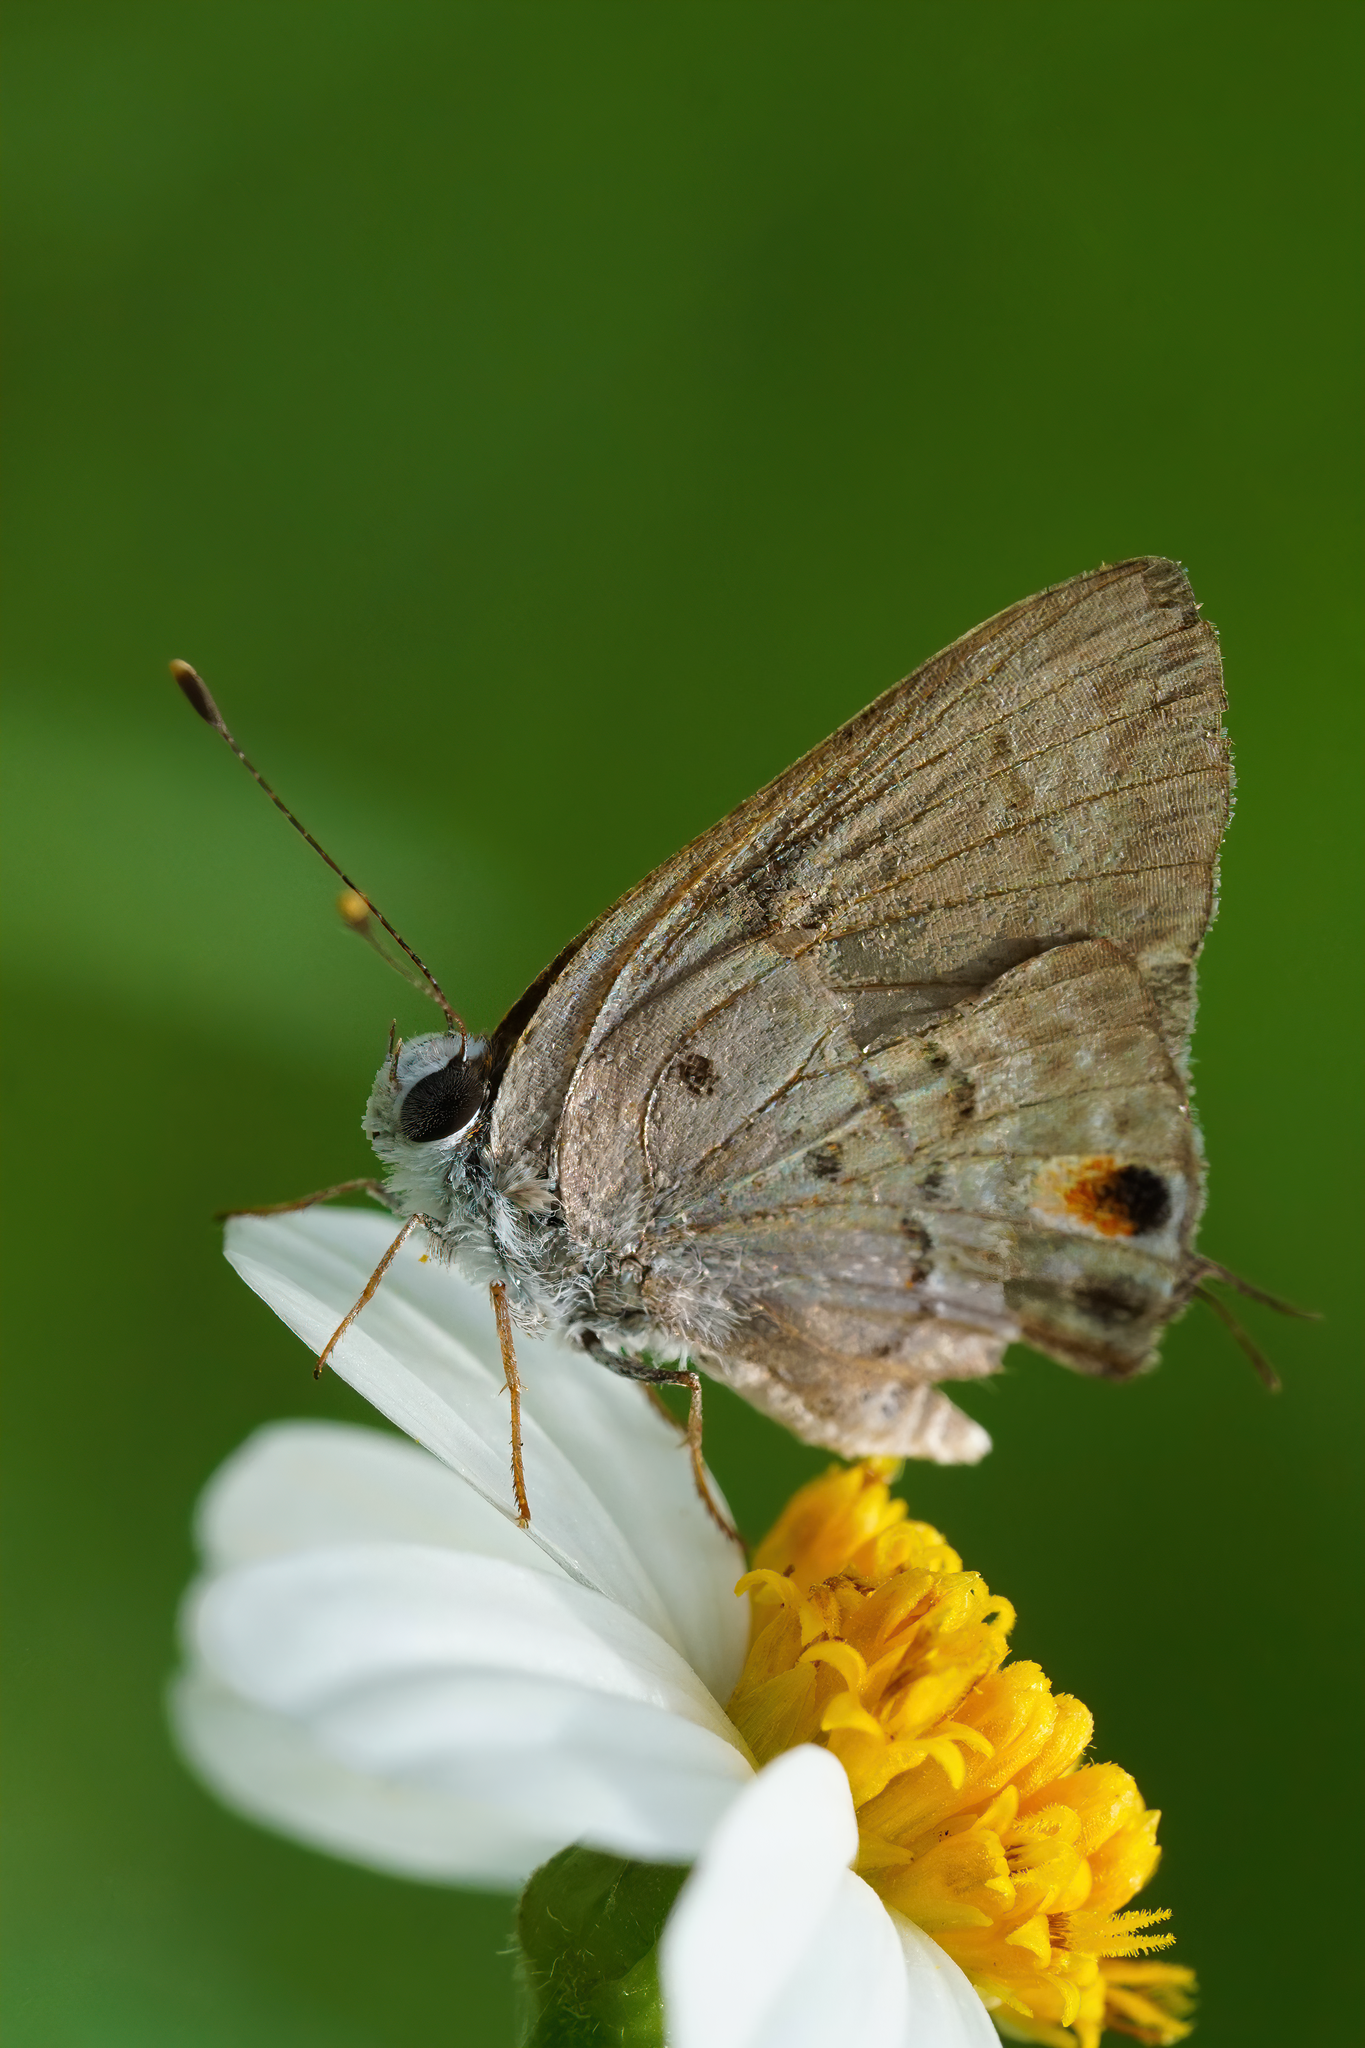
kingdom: Animalia
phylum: Arthropoda
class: Insecta
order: Lepidoptera
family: Lycaenidae
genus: Callicista
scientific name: Callicista columella
